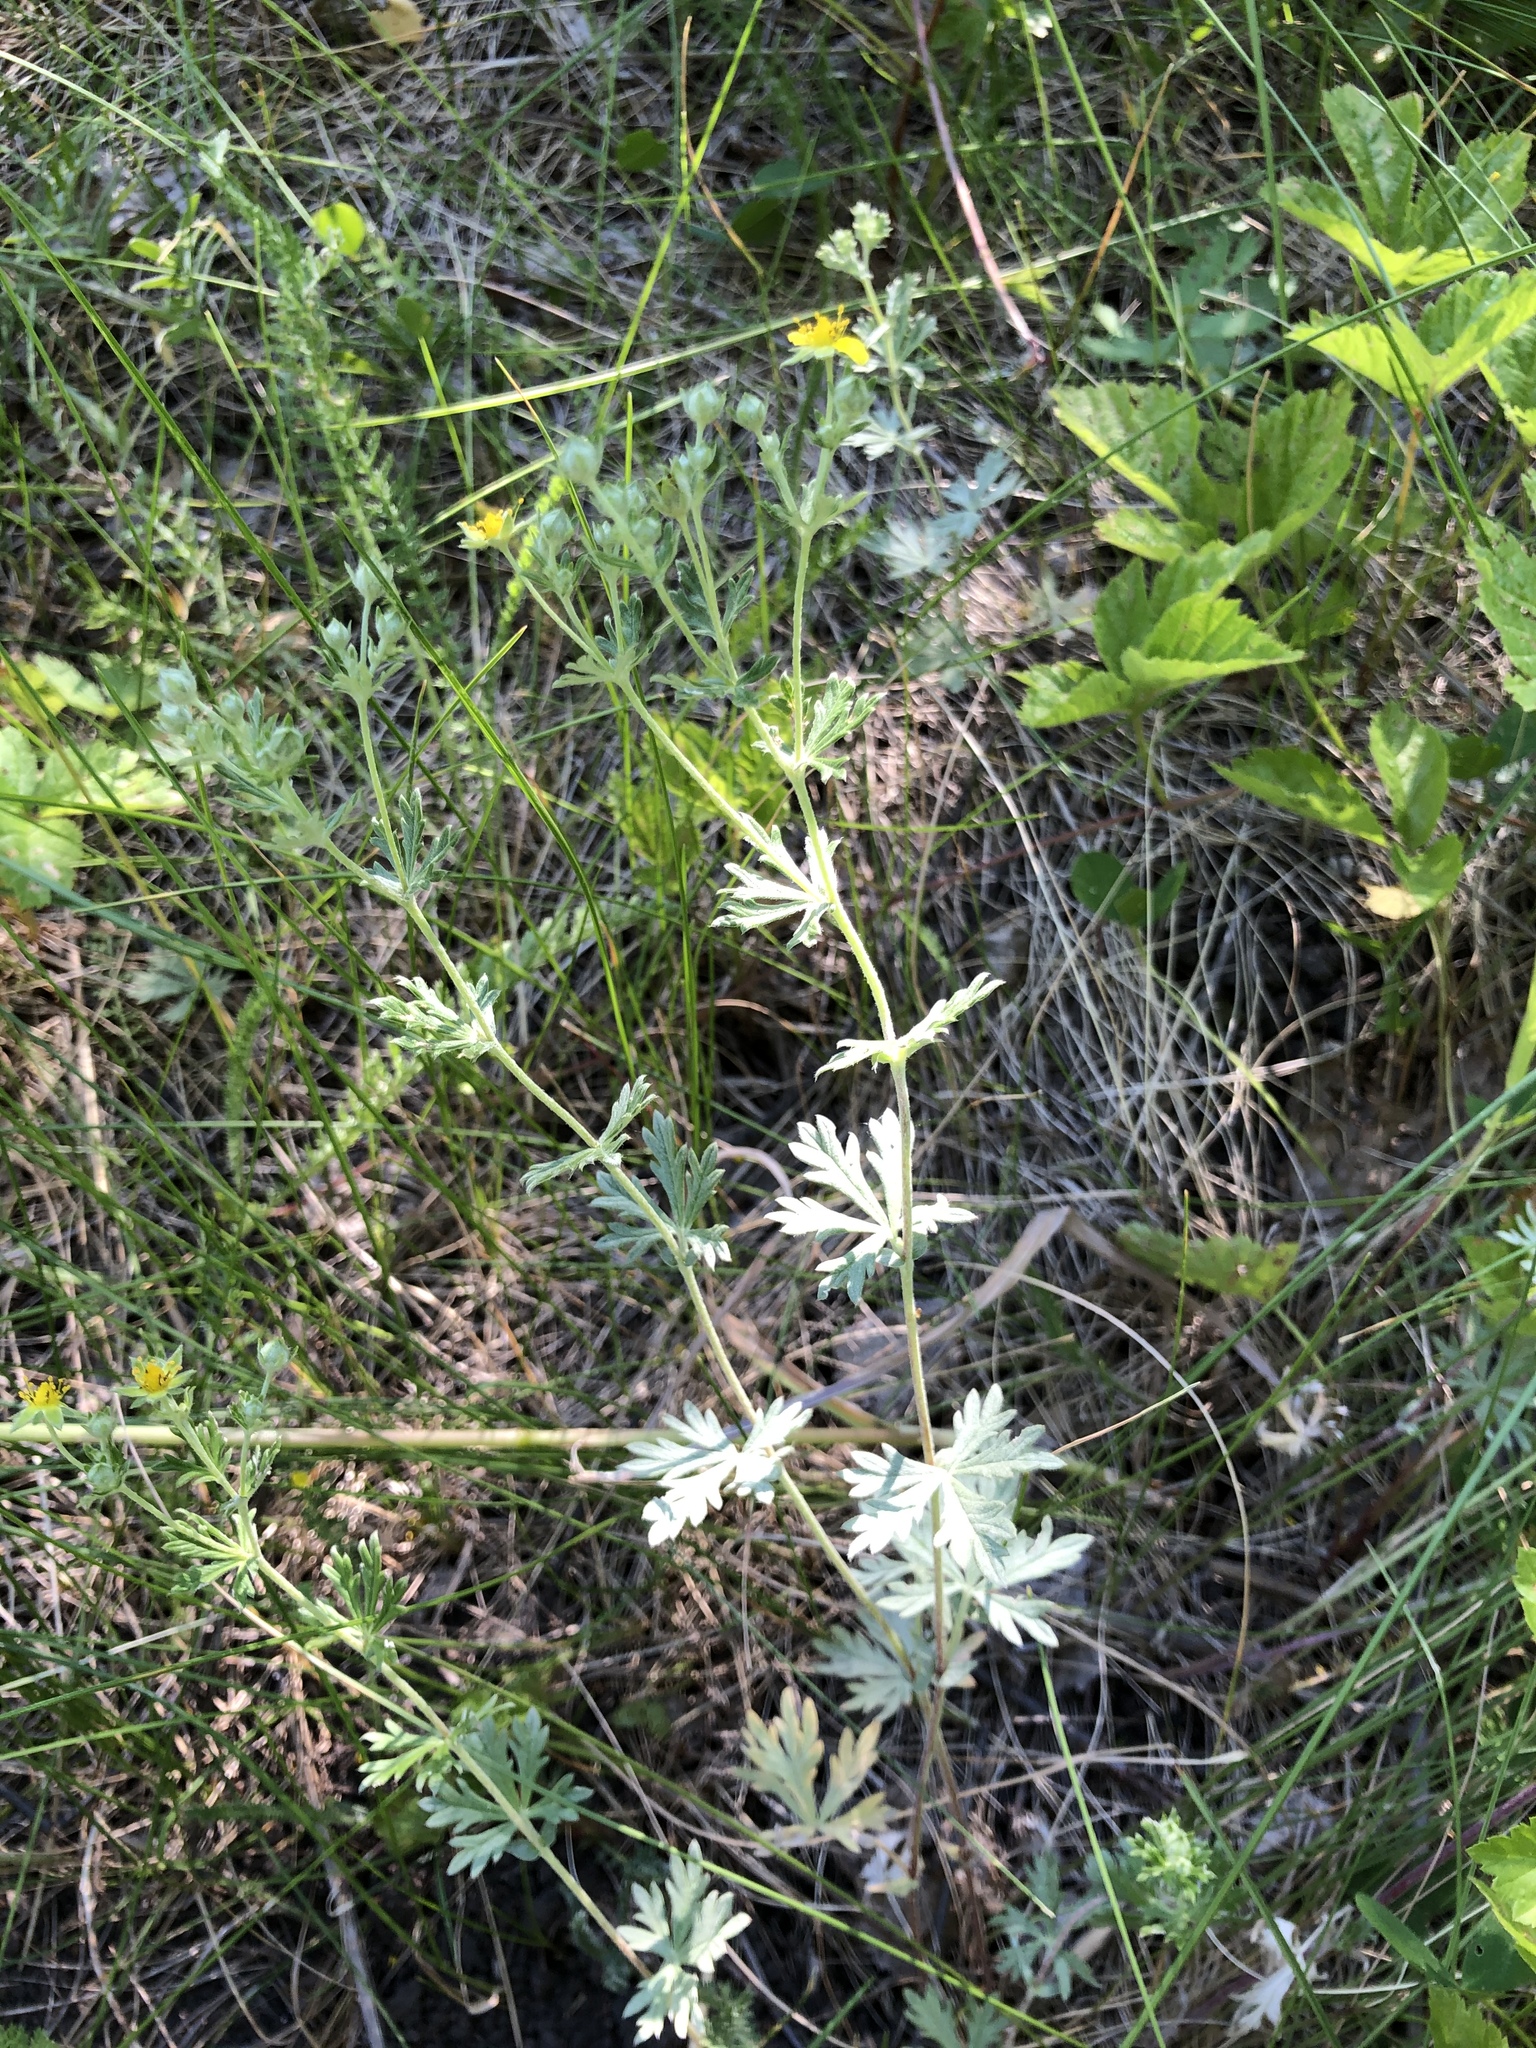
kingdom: Plantae
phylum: Tracheophyta
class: Magnoliopsida
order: Rosales
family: Rosaceae
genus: Potentilla
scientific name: Potentilla argentea
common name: Hoary cinquefoil
